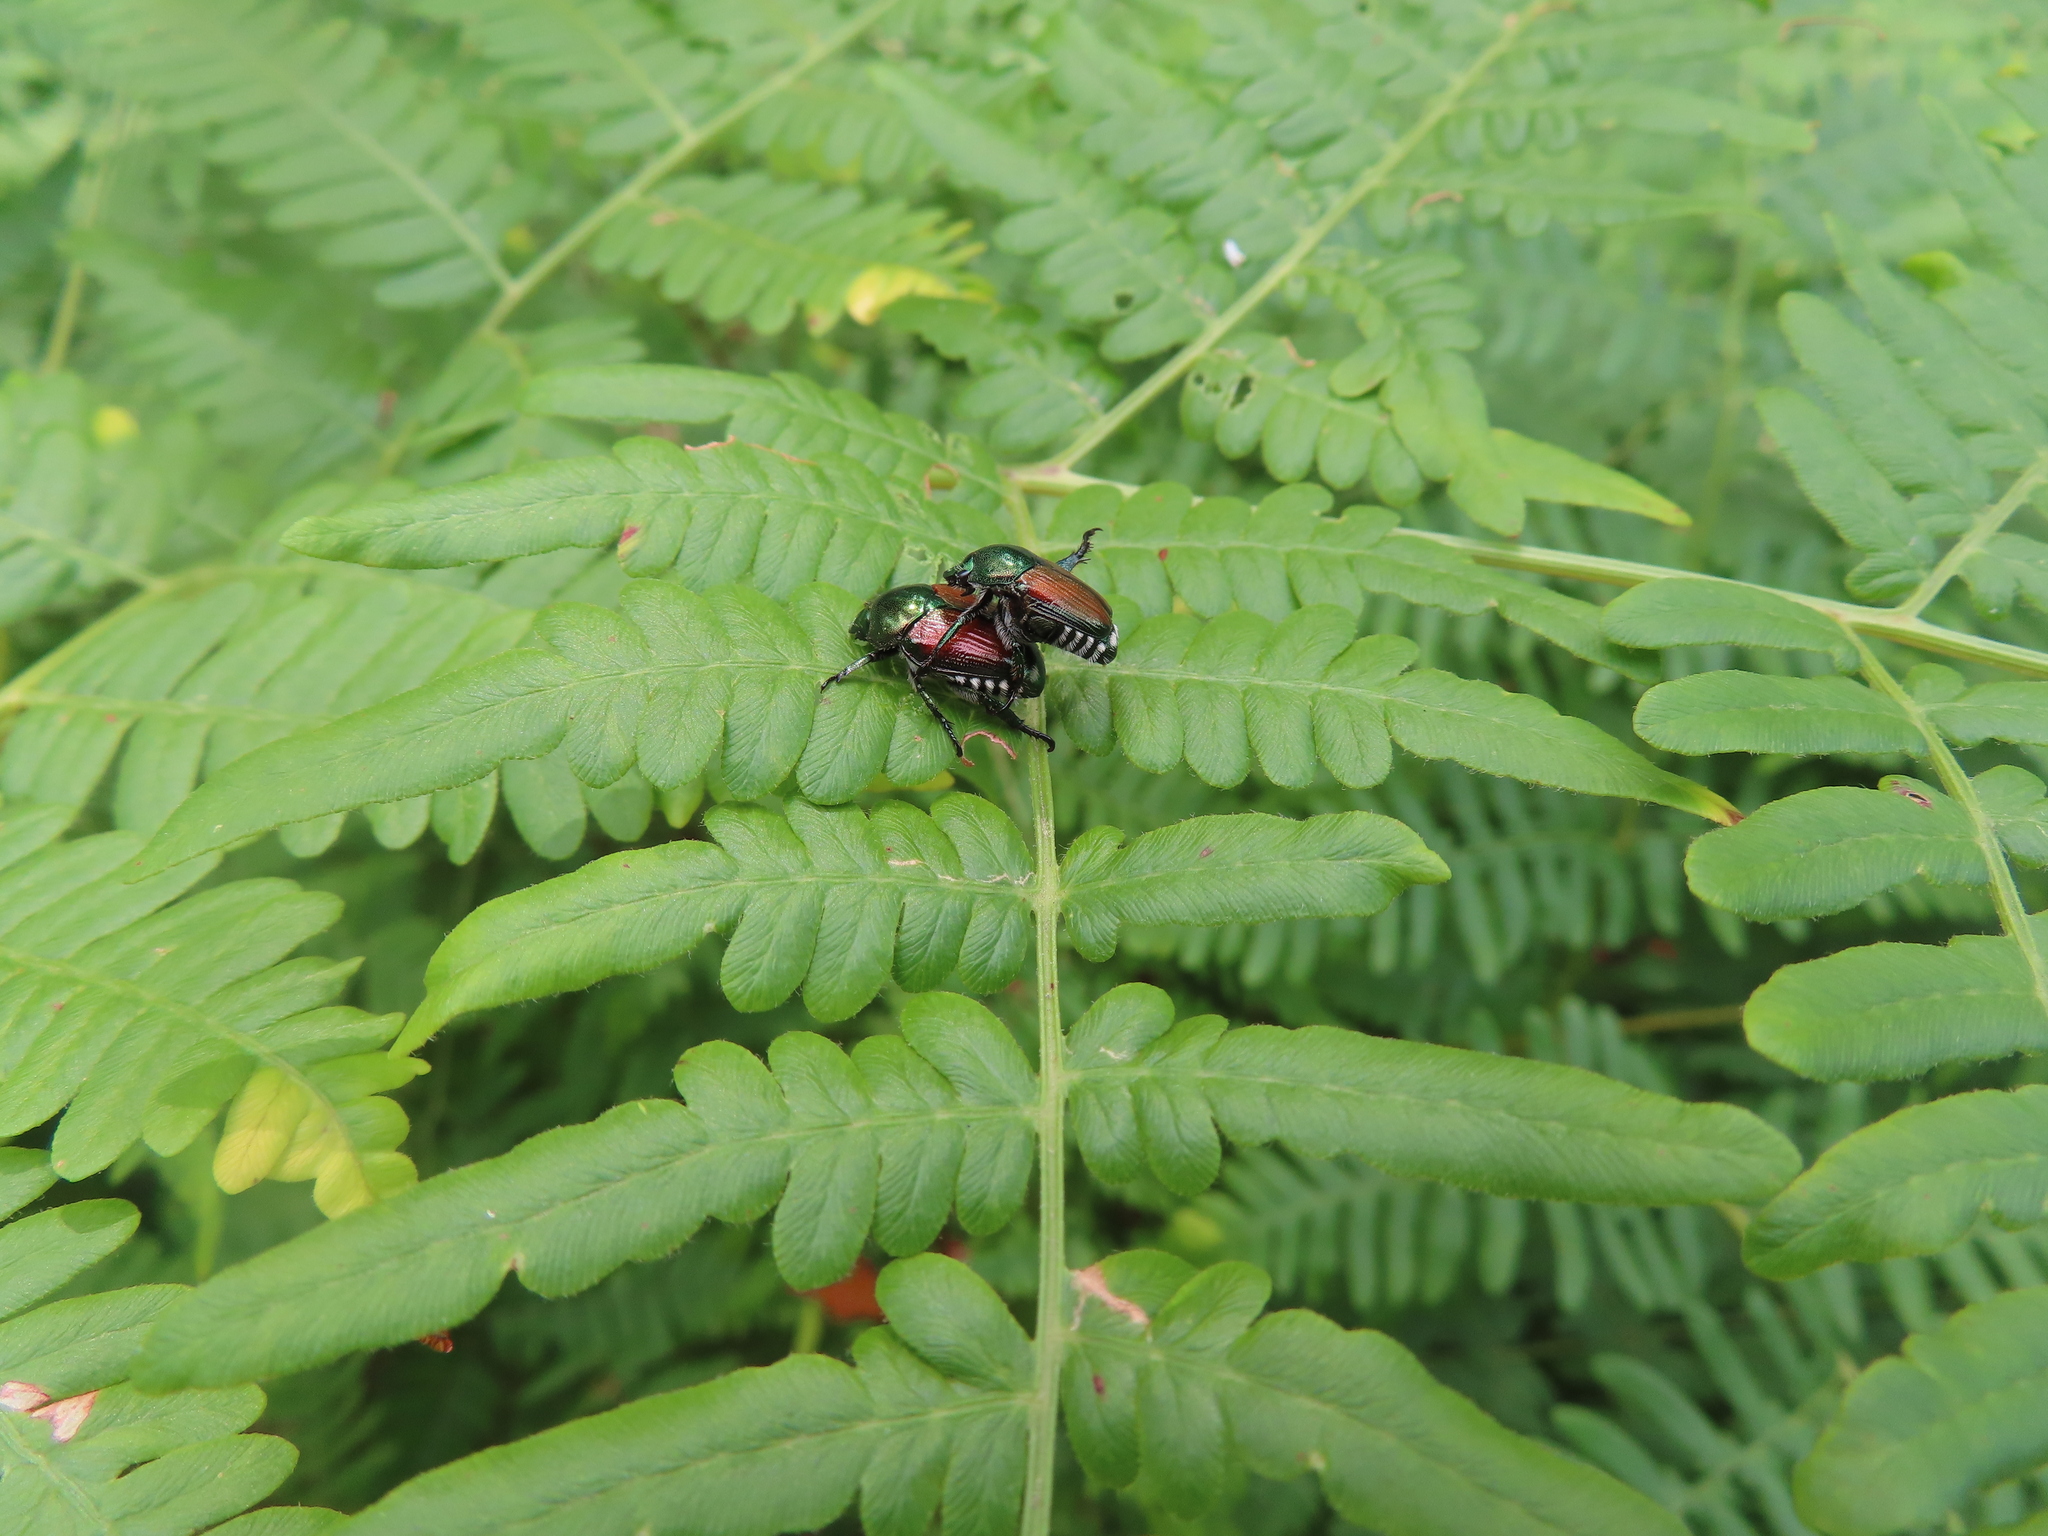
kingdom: Animalia
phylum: Arthropoda
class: Insecta
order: Coleoptera
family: Scarabaeidae
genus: Popillia
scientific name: Popillia japonica
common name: Japanese beetle
